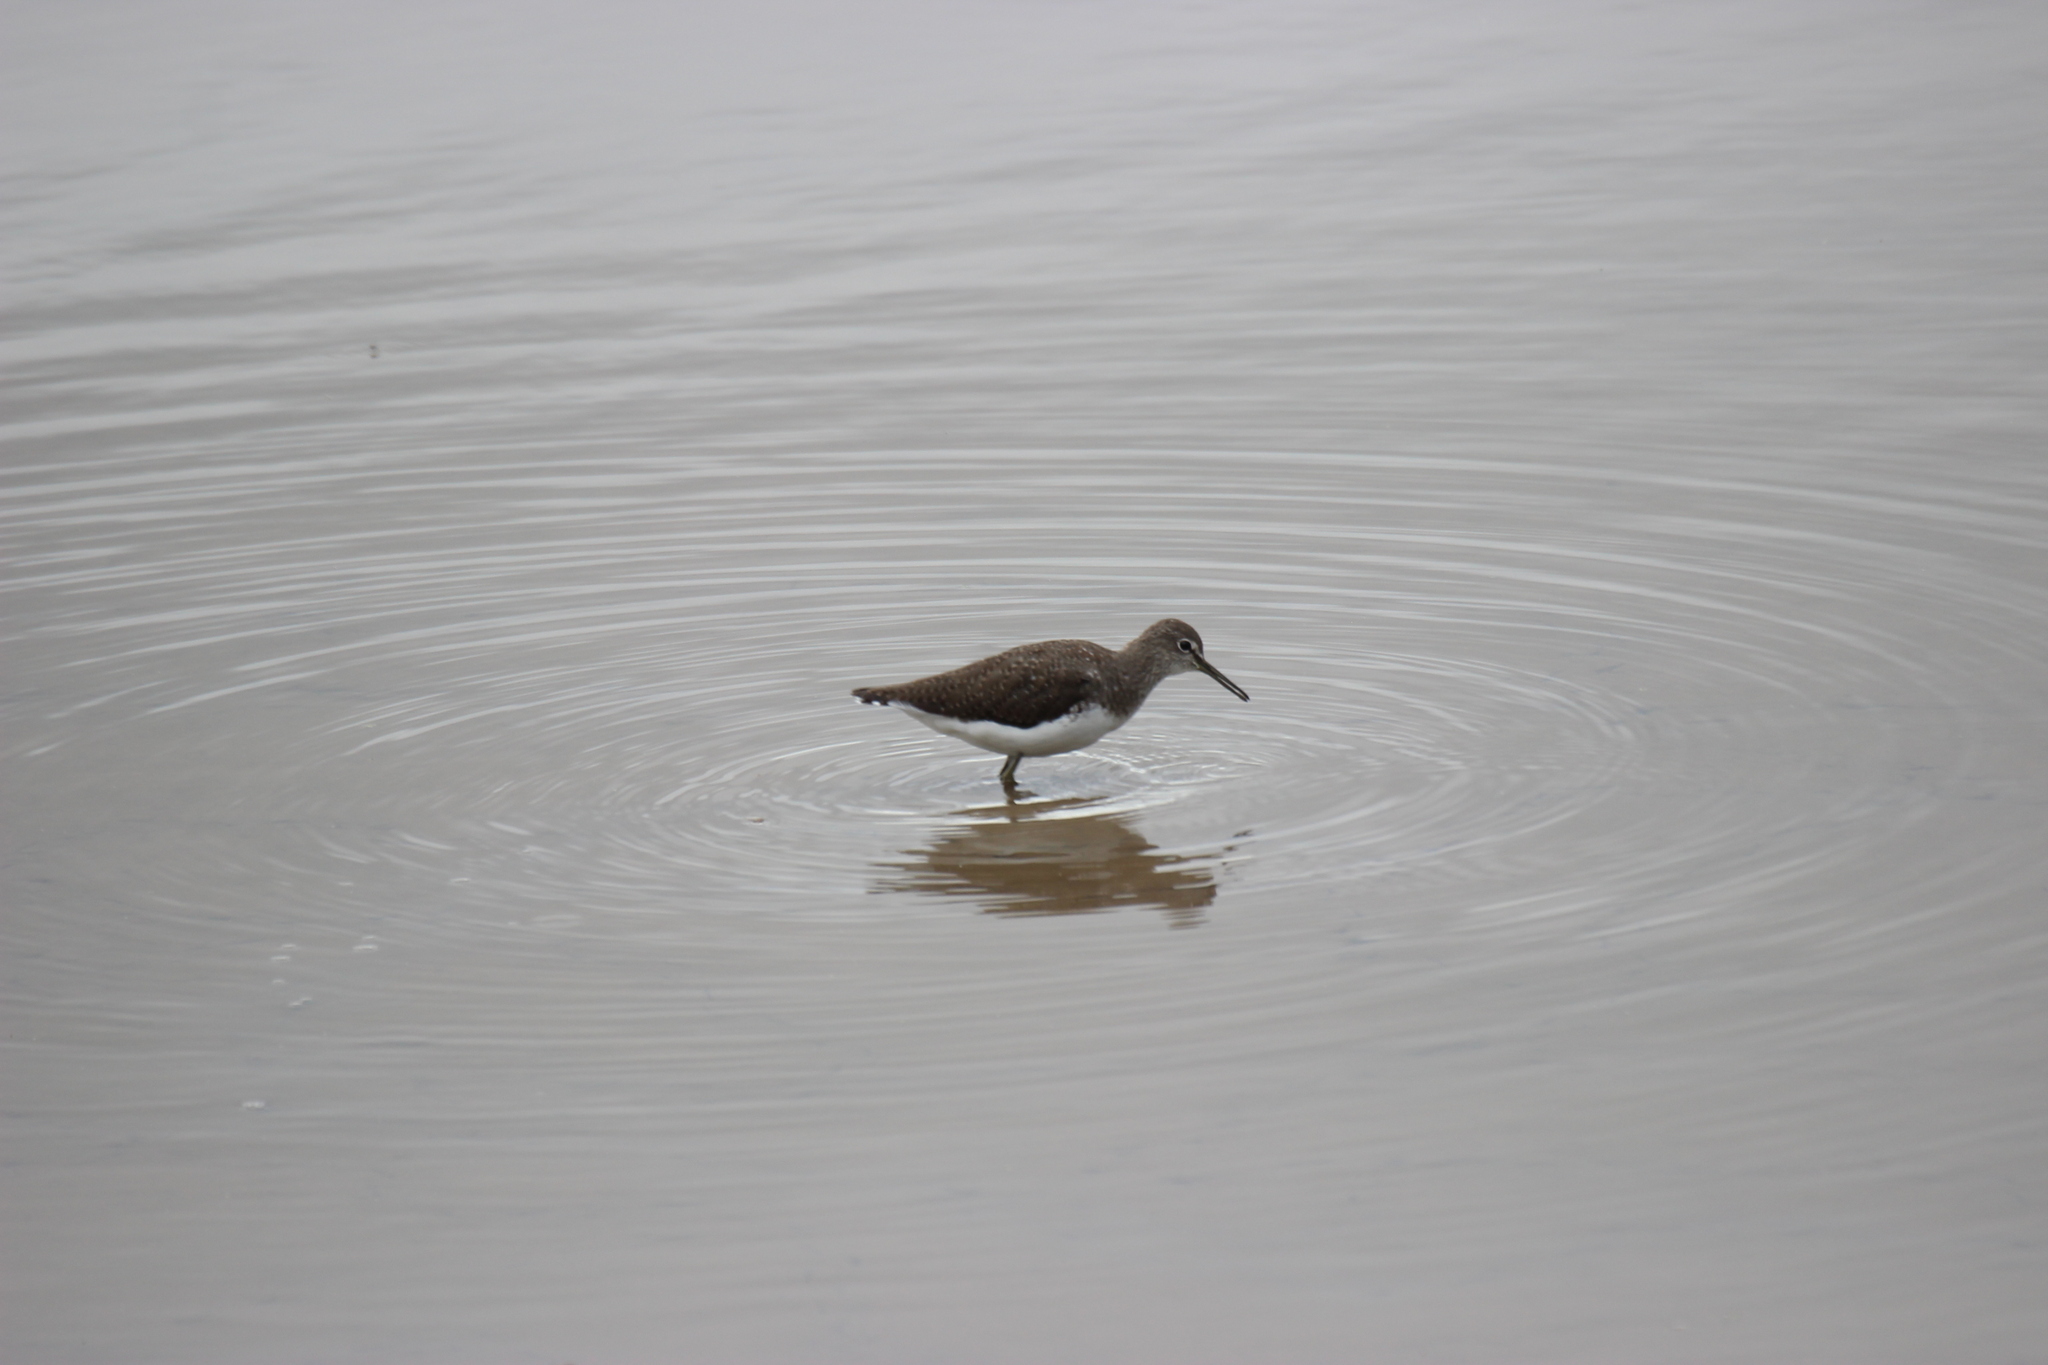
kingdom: Animalia
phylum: Chordata
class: Aves
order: Charadriiformes
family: Scolopacidae
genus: Tringa
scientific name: Tringa ochropus
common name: Green sandpiper
